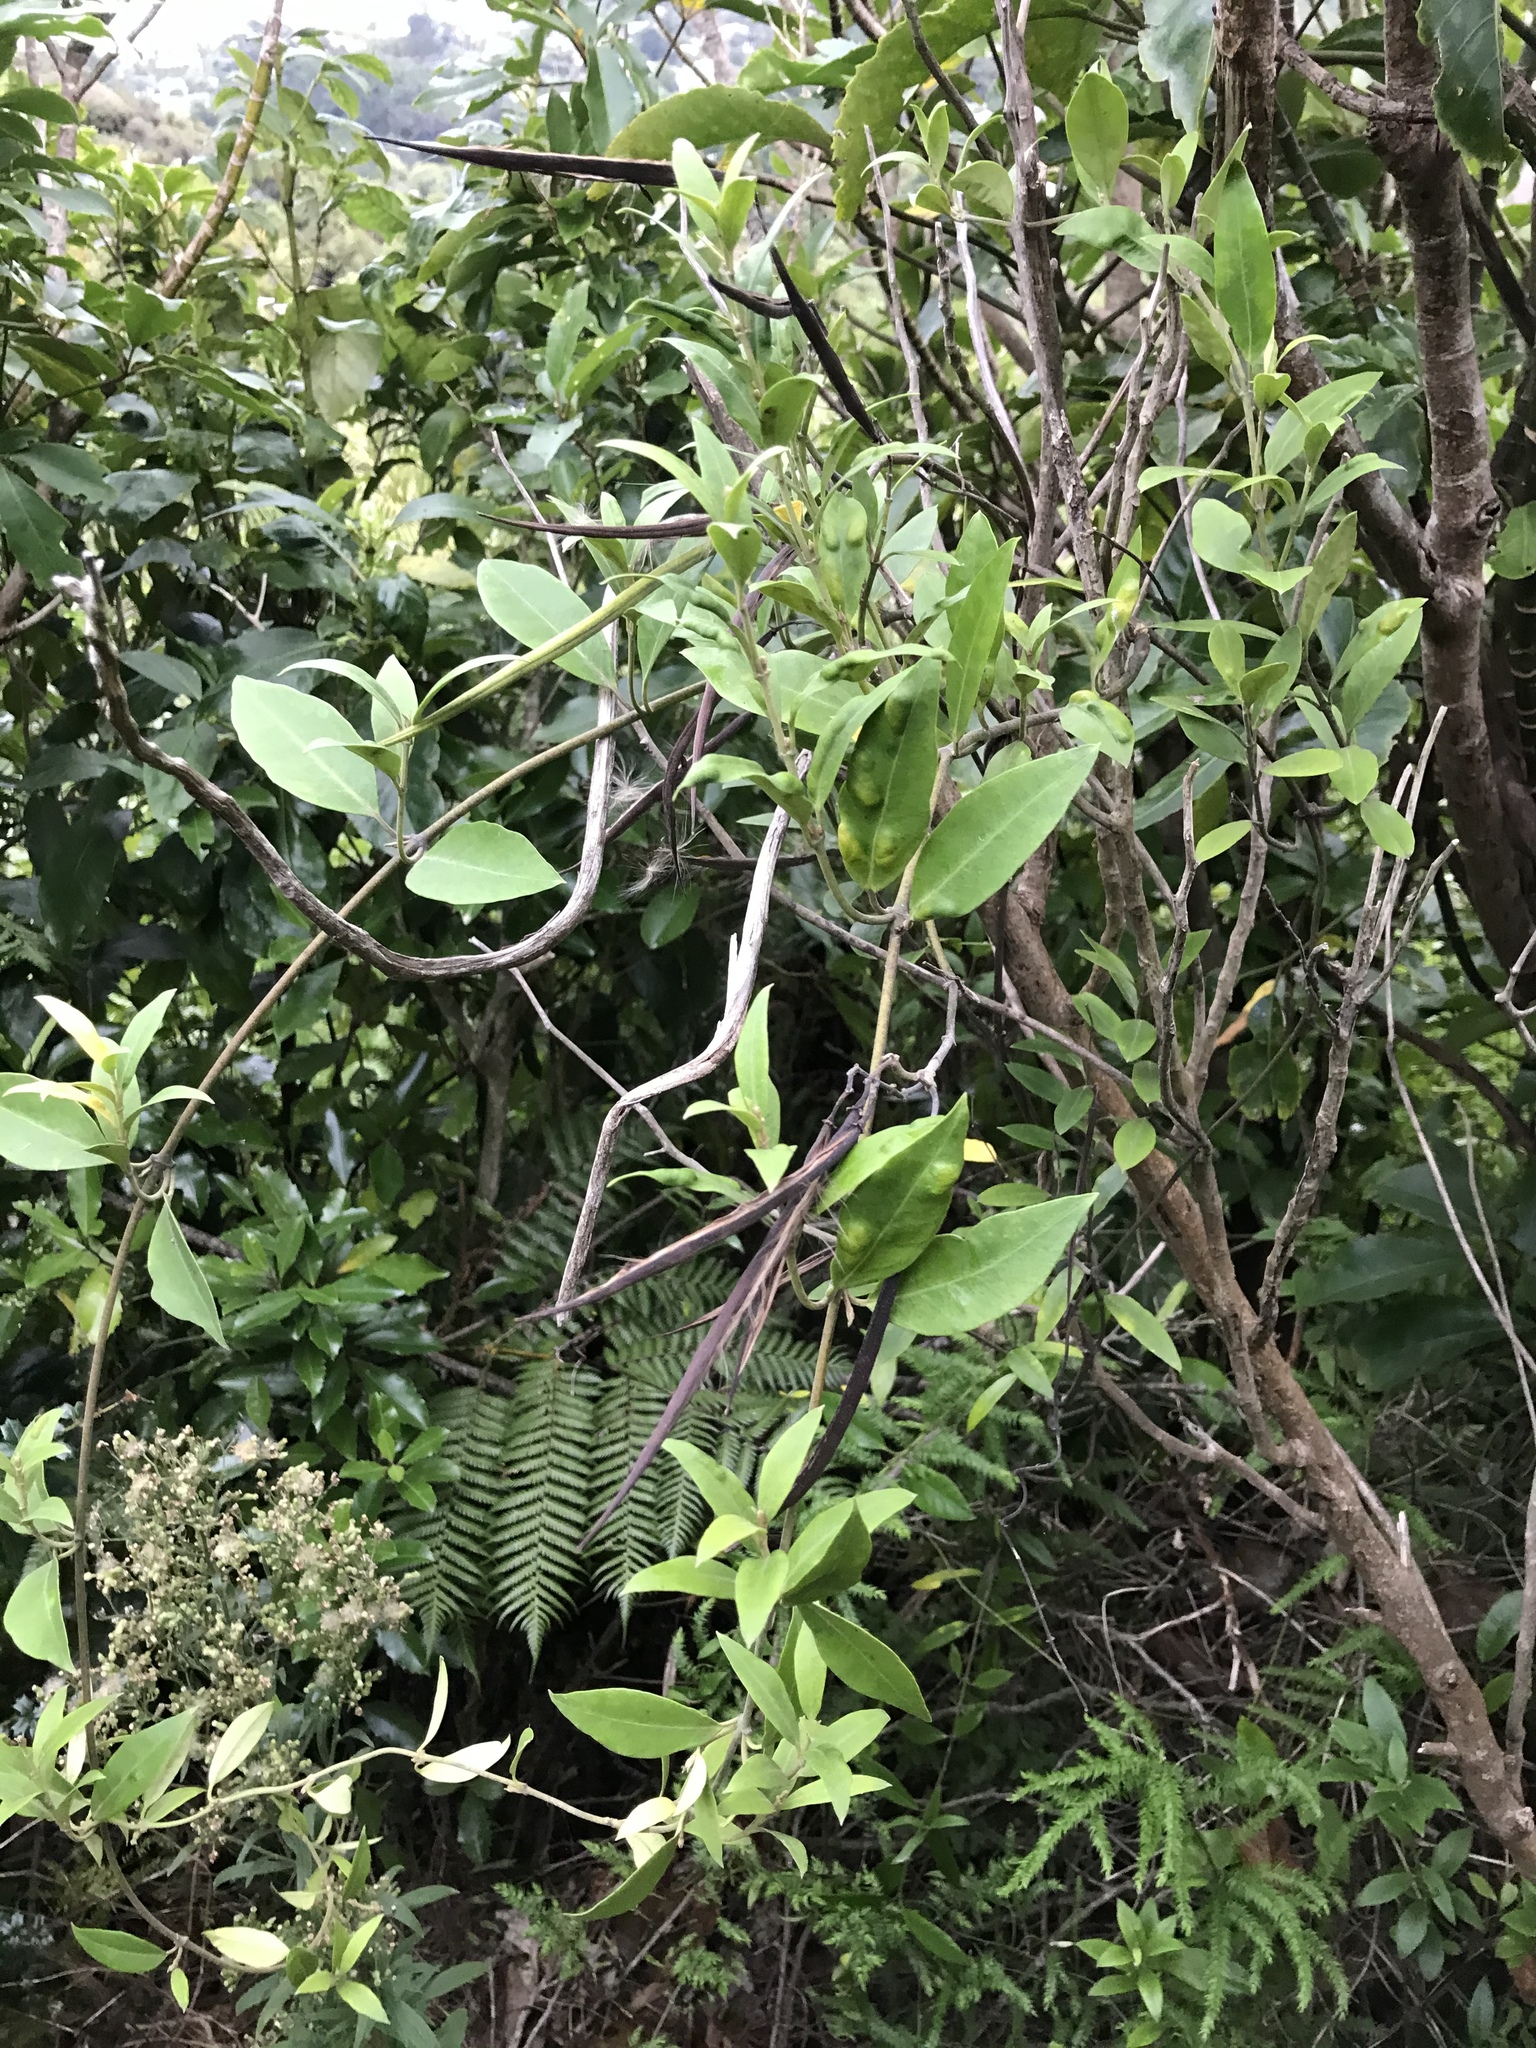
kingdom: Plantae
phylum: Tracheophyta
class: Magnoliopsida
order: Gentianales
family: Apocynaceae
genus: Parsonsia
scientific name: Parsonsia heterophylla
